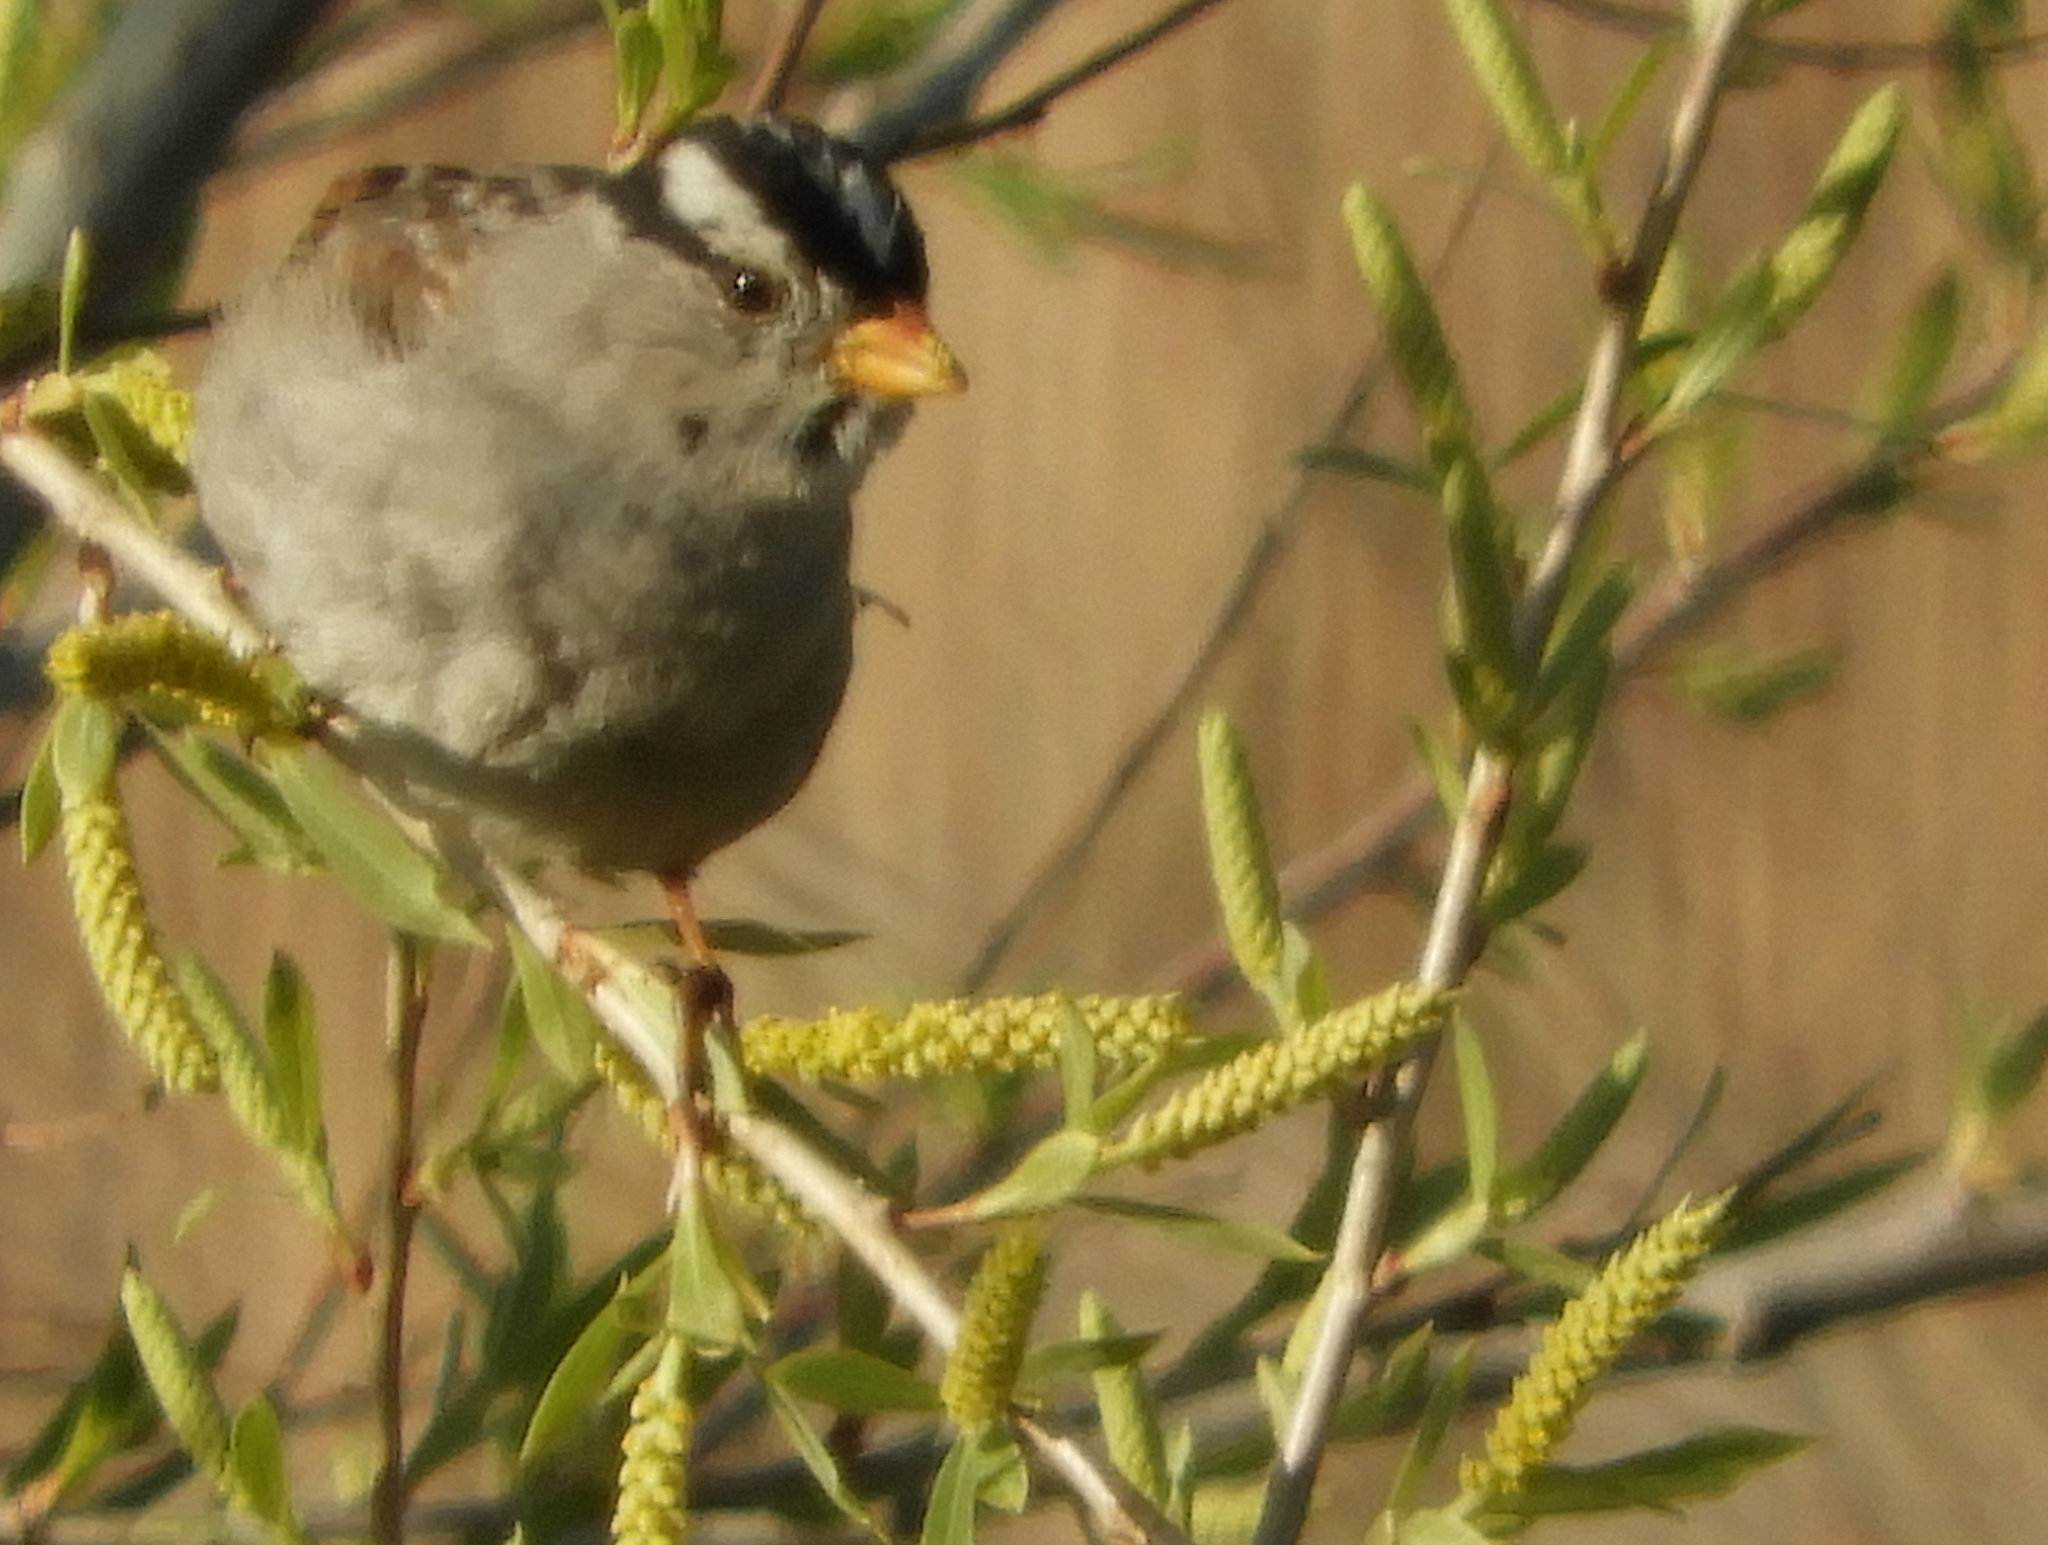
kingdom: Animalia
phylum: Chordata
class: Aves
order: Passeriformes
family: Passerellidae
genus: Zonotrichia
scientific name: Zonotrichia leucophrys
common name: White-crowned sparrow
